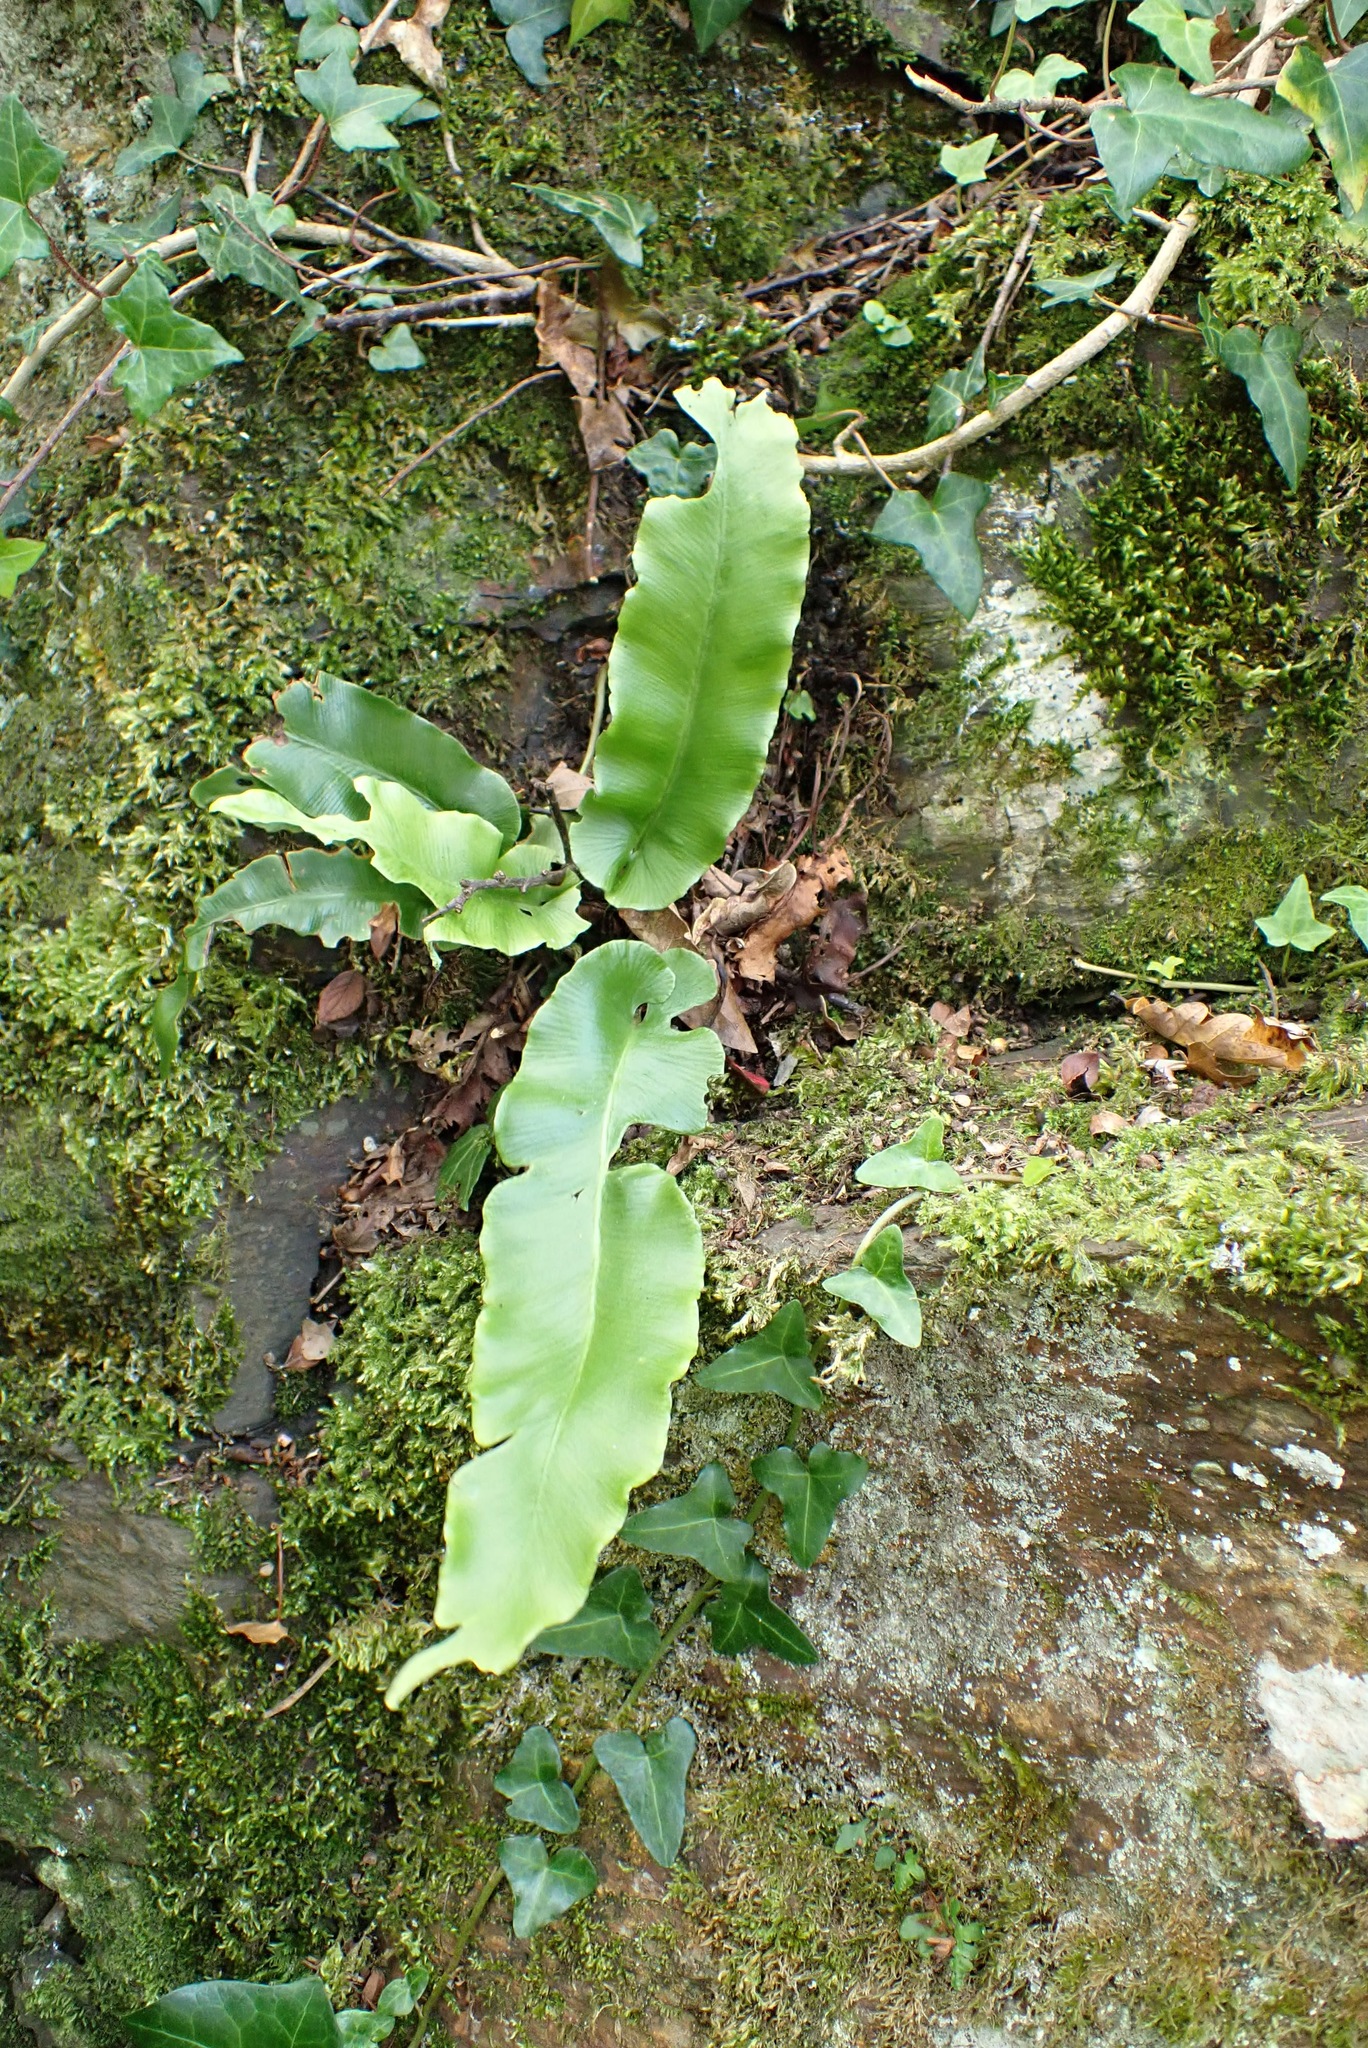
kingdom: Plantae
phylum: Tracheophyta
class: Polypodiopsida
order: Polypodiales
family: Aspleniaceae
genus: Asplenium
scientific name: Asplenium scolopendrium
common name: Hart's-tongue fern
